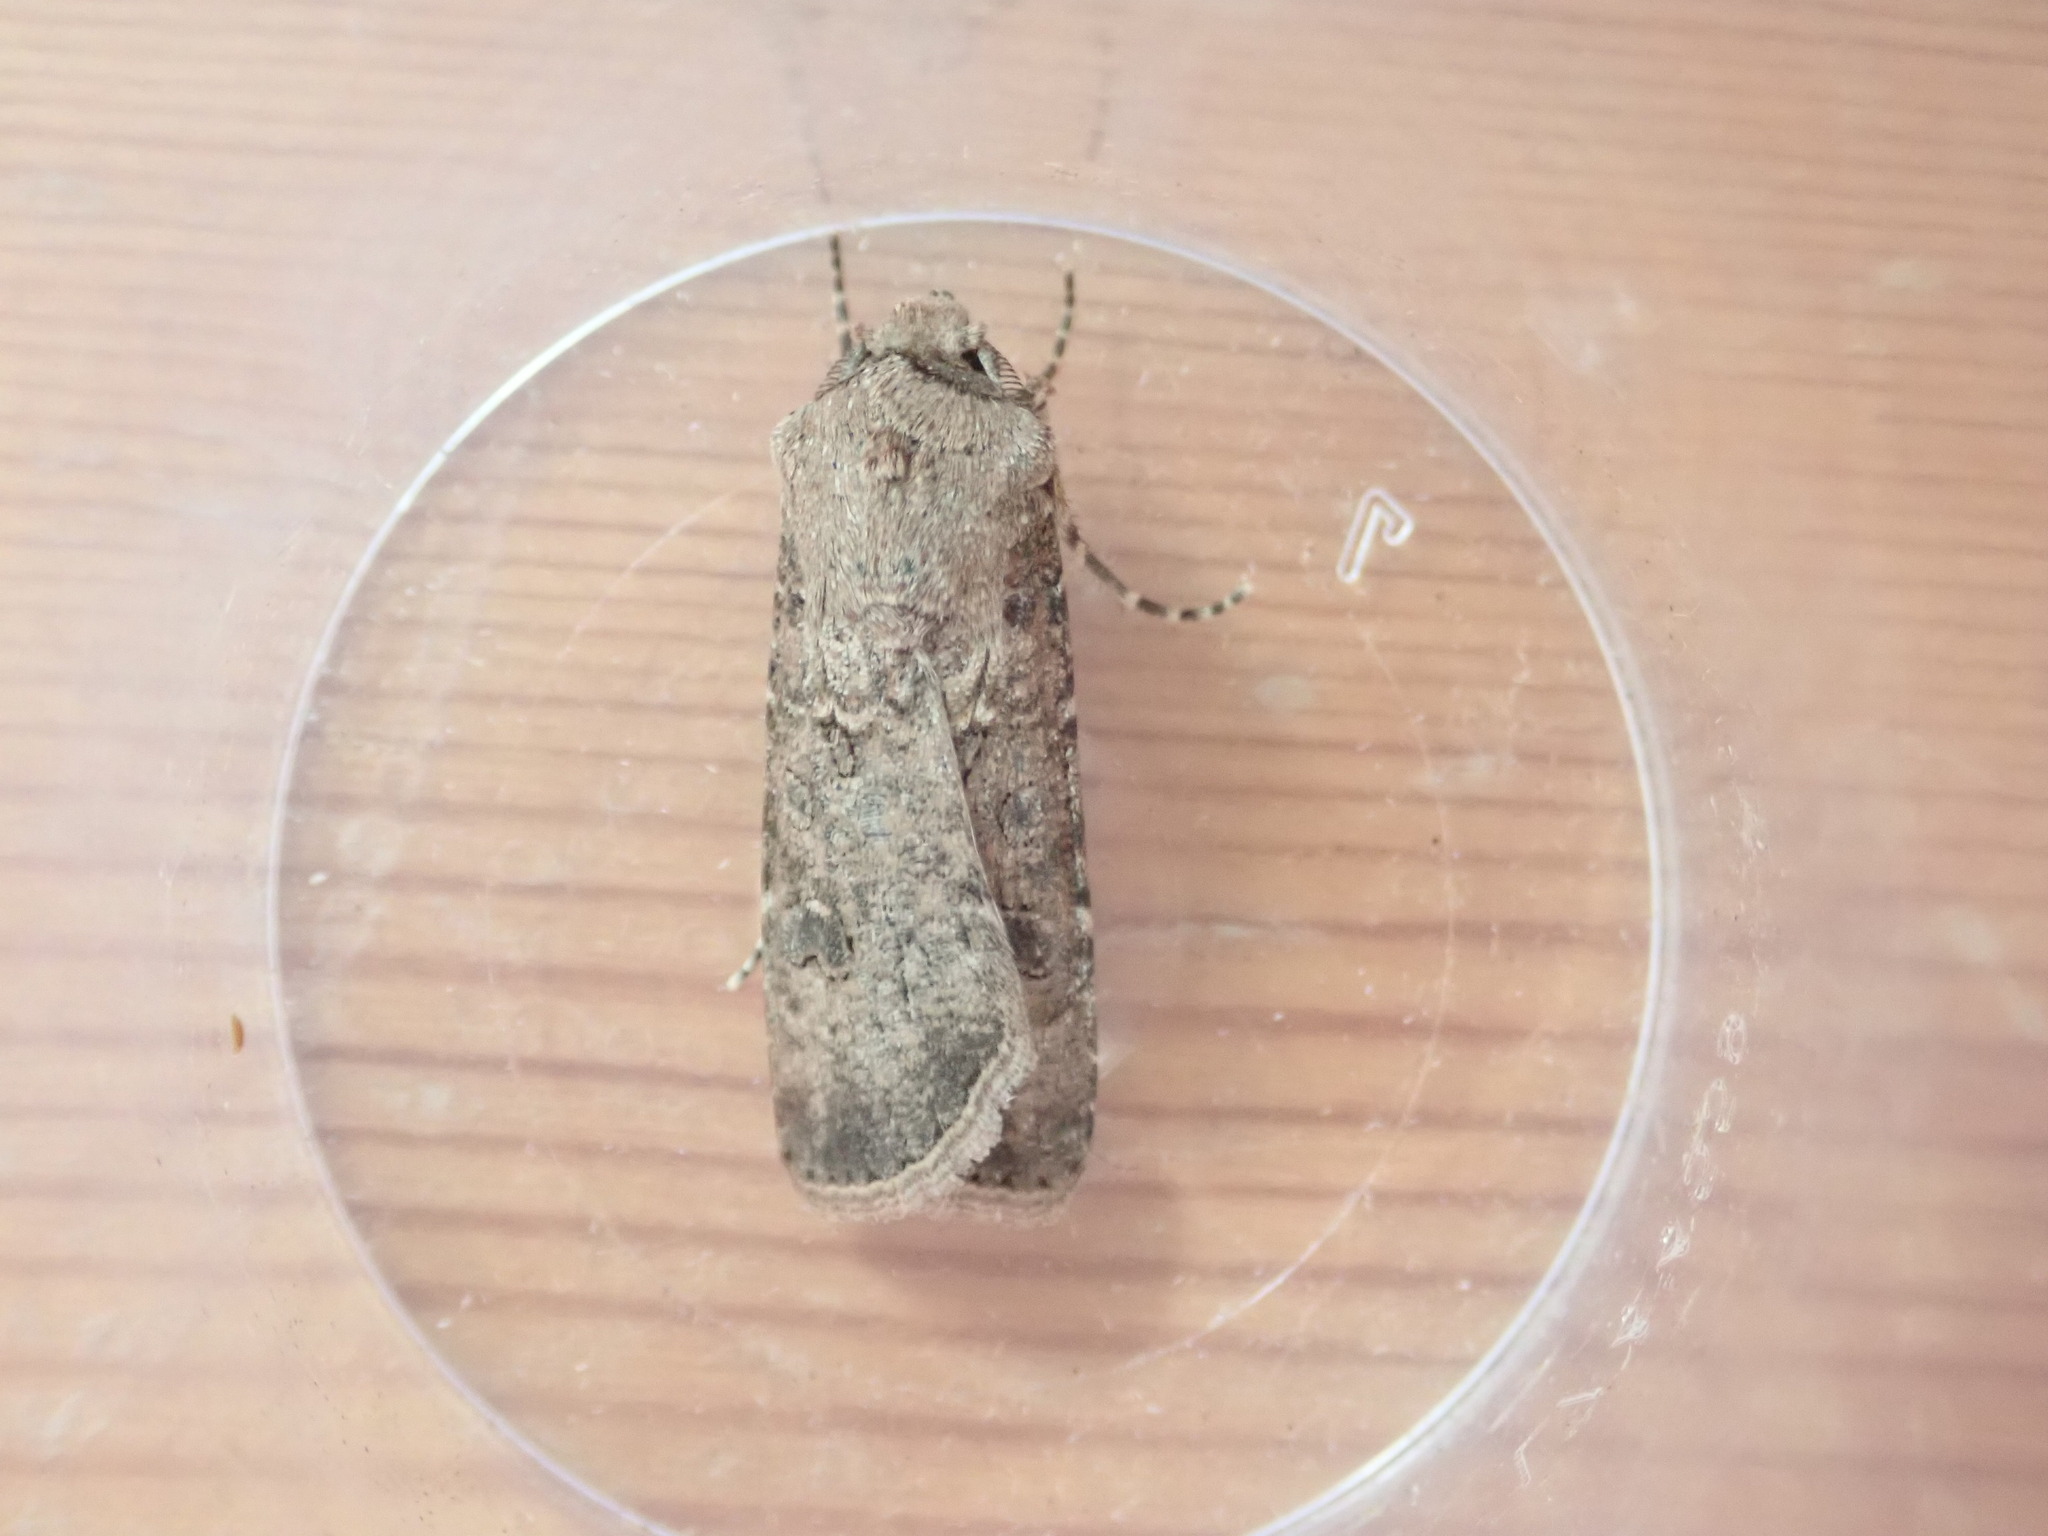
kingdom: Animalia
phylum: Arthropoda
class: Insecta
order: Lepidoptera
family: Noctuidae
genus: Agrotis
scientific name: Agrotis segetum
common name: Turnip moth
